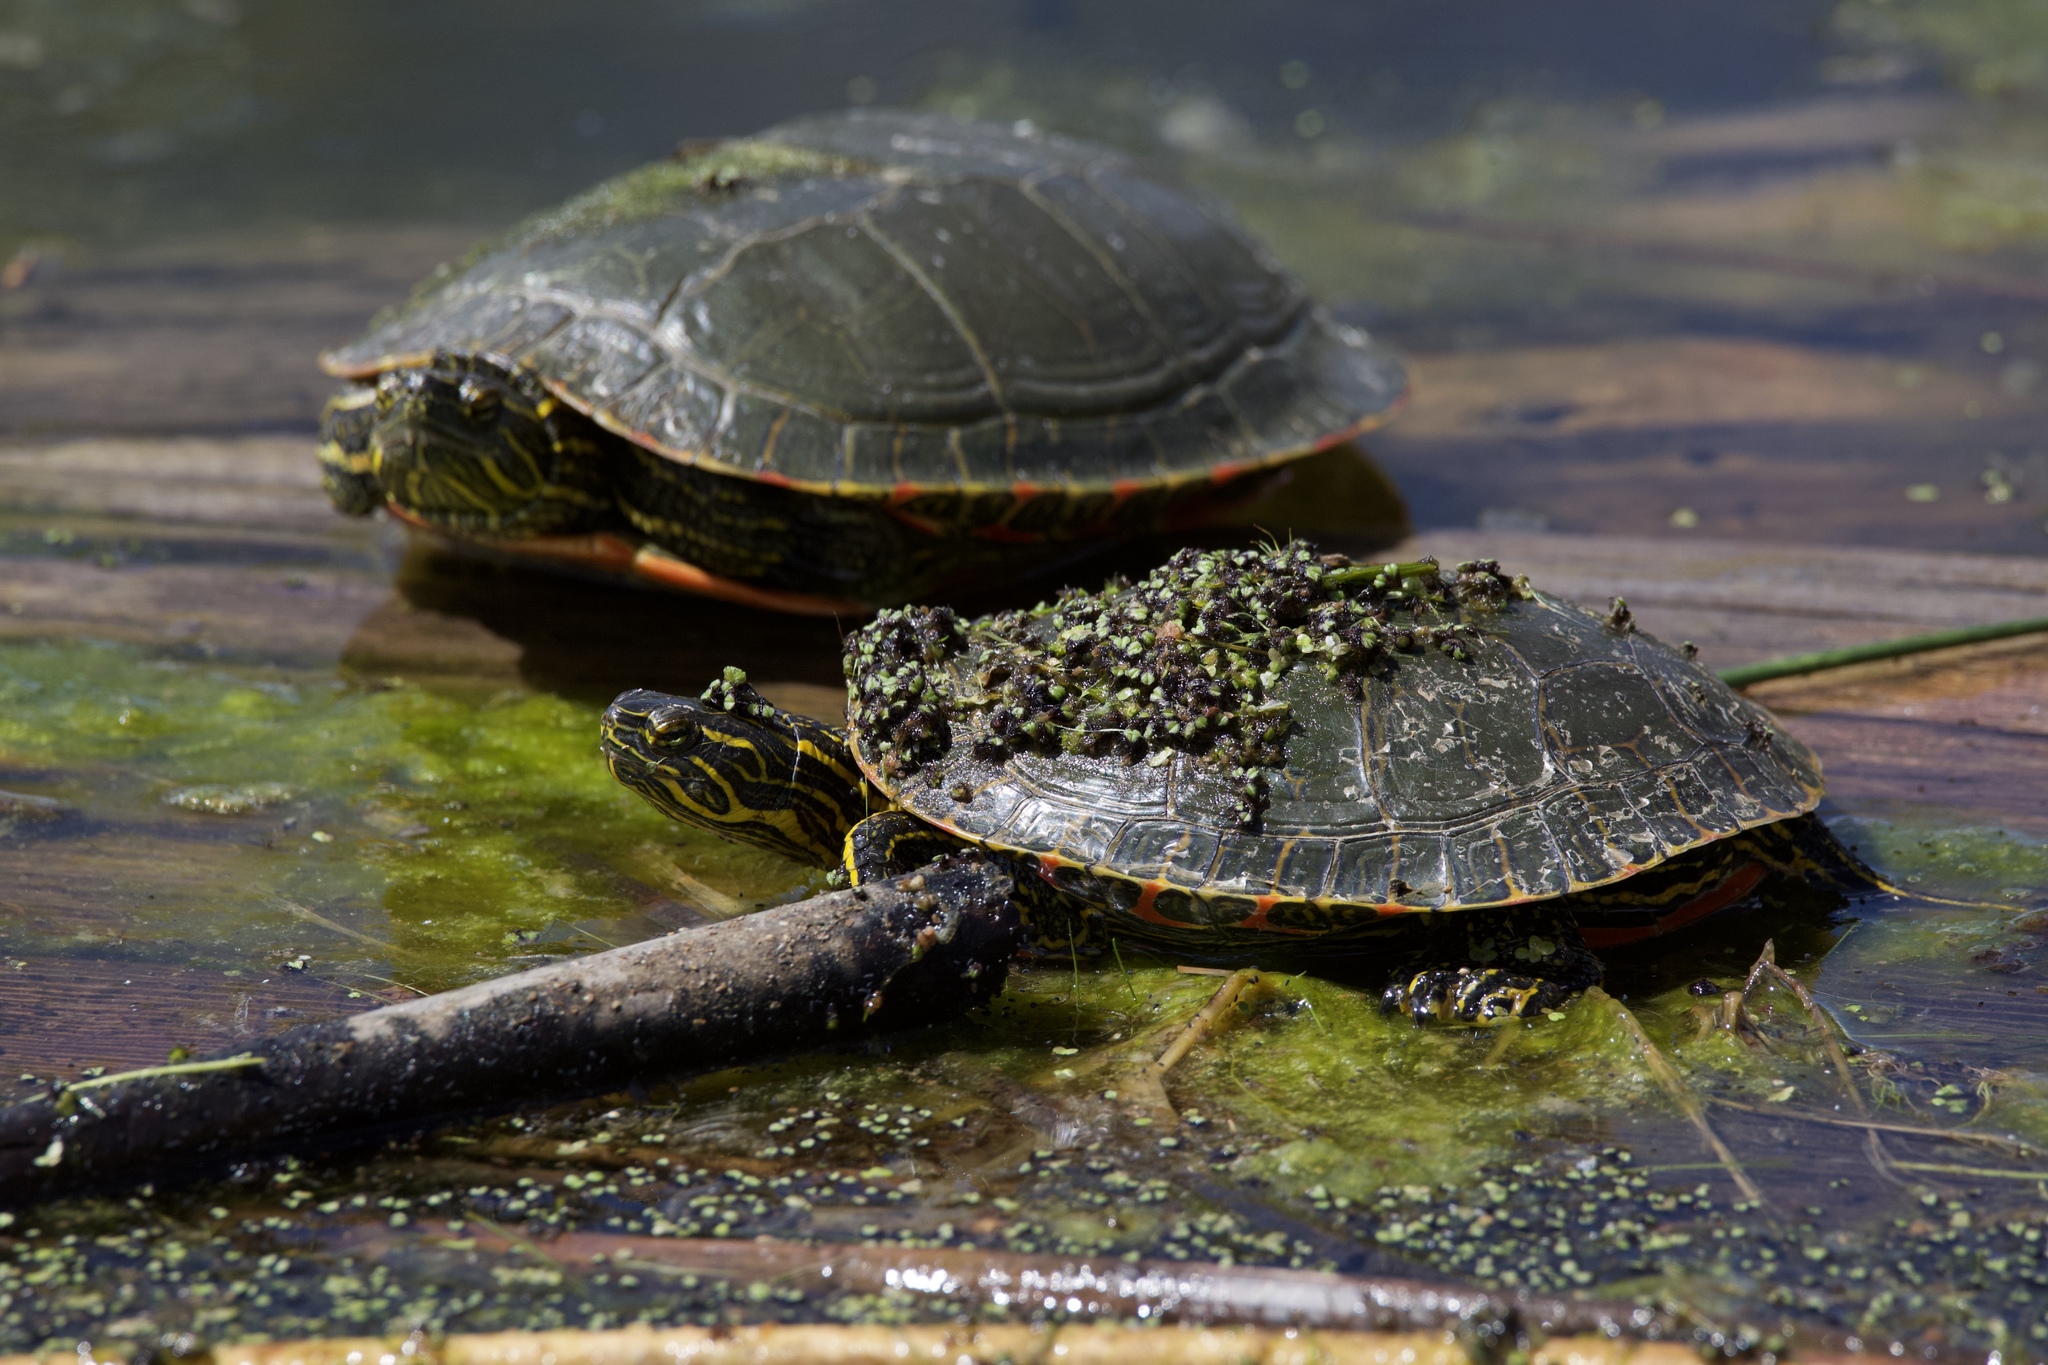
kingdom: Animalia
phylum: Chordata
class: Testudines
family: Emydidae
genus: Chrysemys
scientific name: Chrysemys picta
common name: Painted turtle
